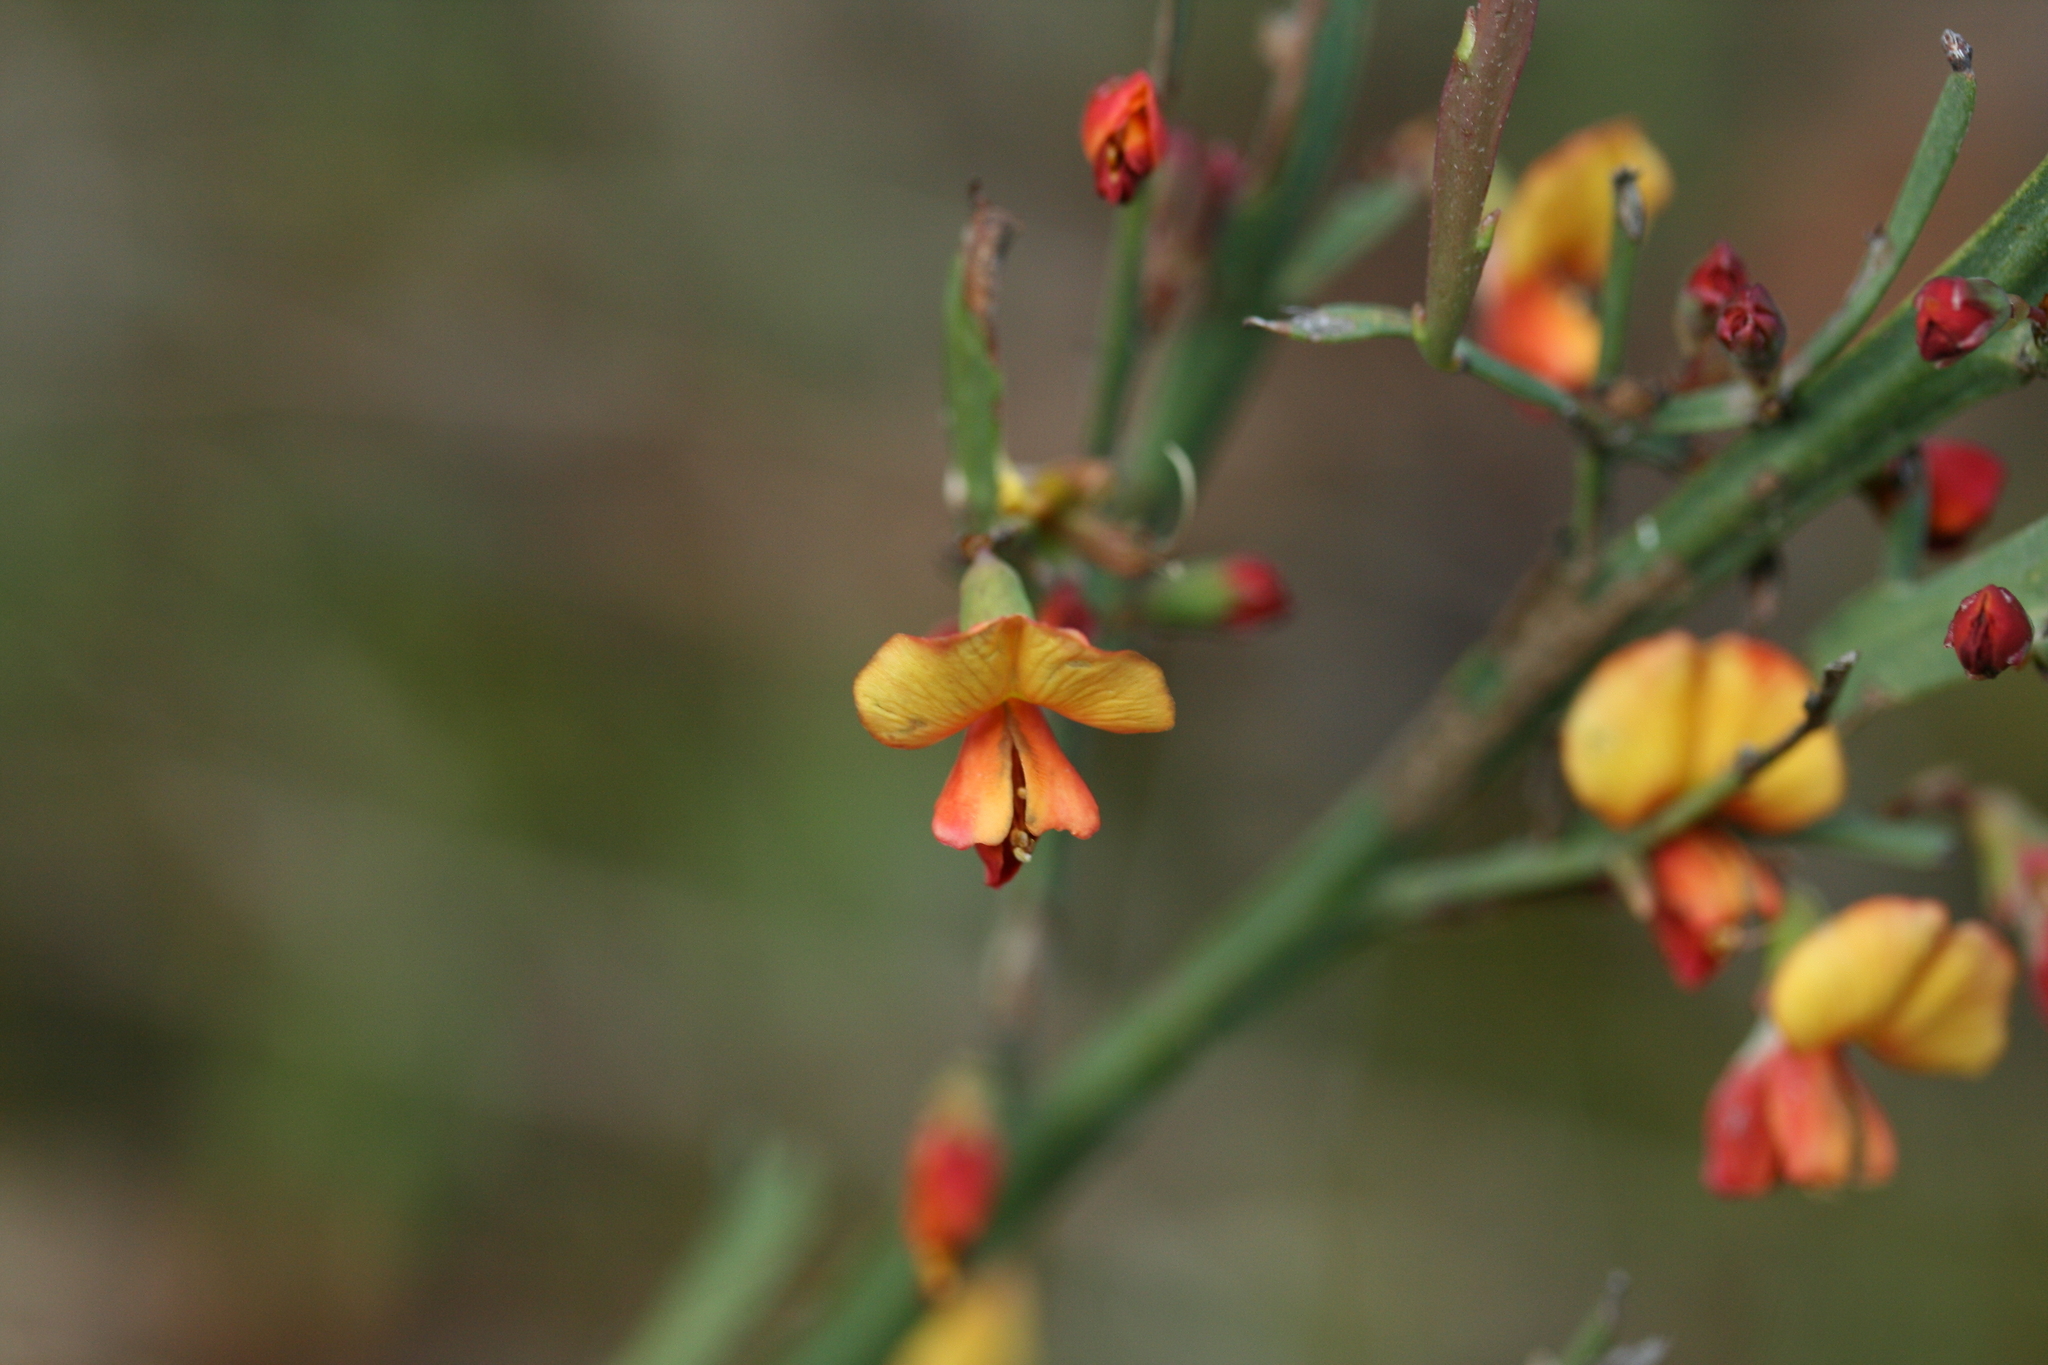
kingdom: Plantae
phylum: Tracheophyta
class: Magnoliopsida
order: Fabales
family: Fabaceae
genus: Bossiaea
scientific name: Bossiaea riparia
